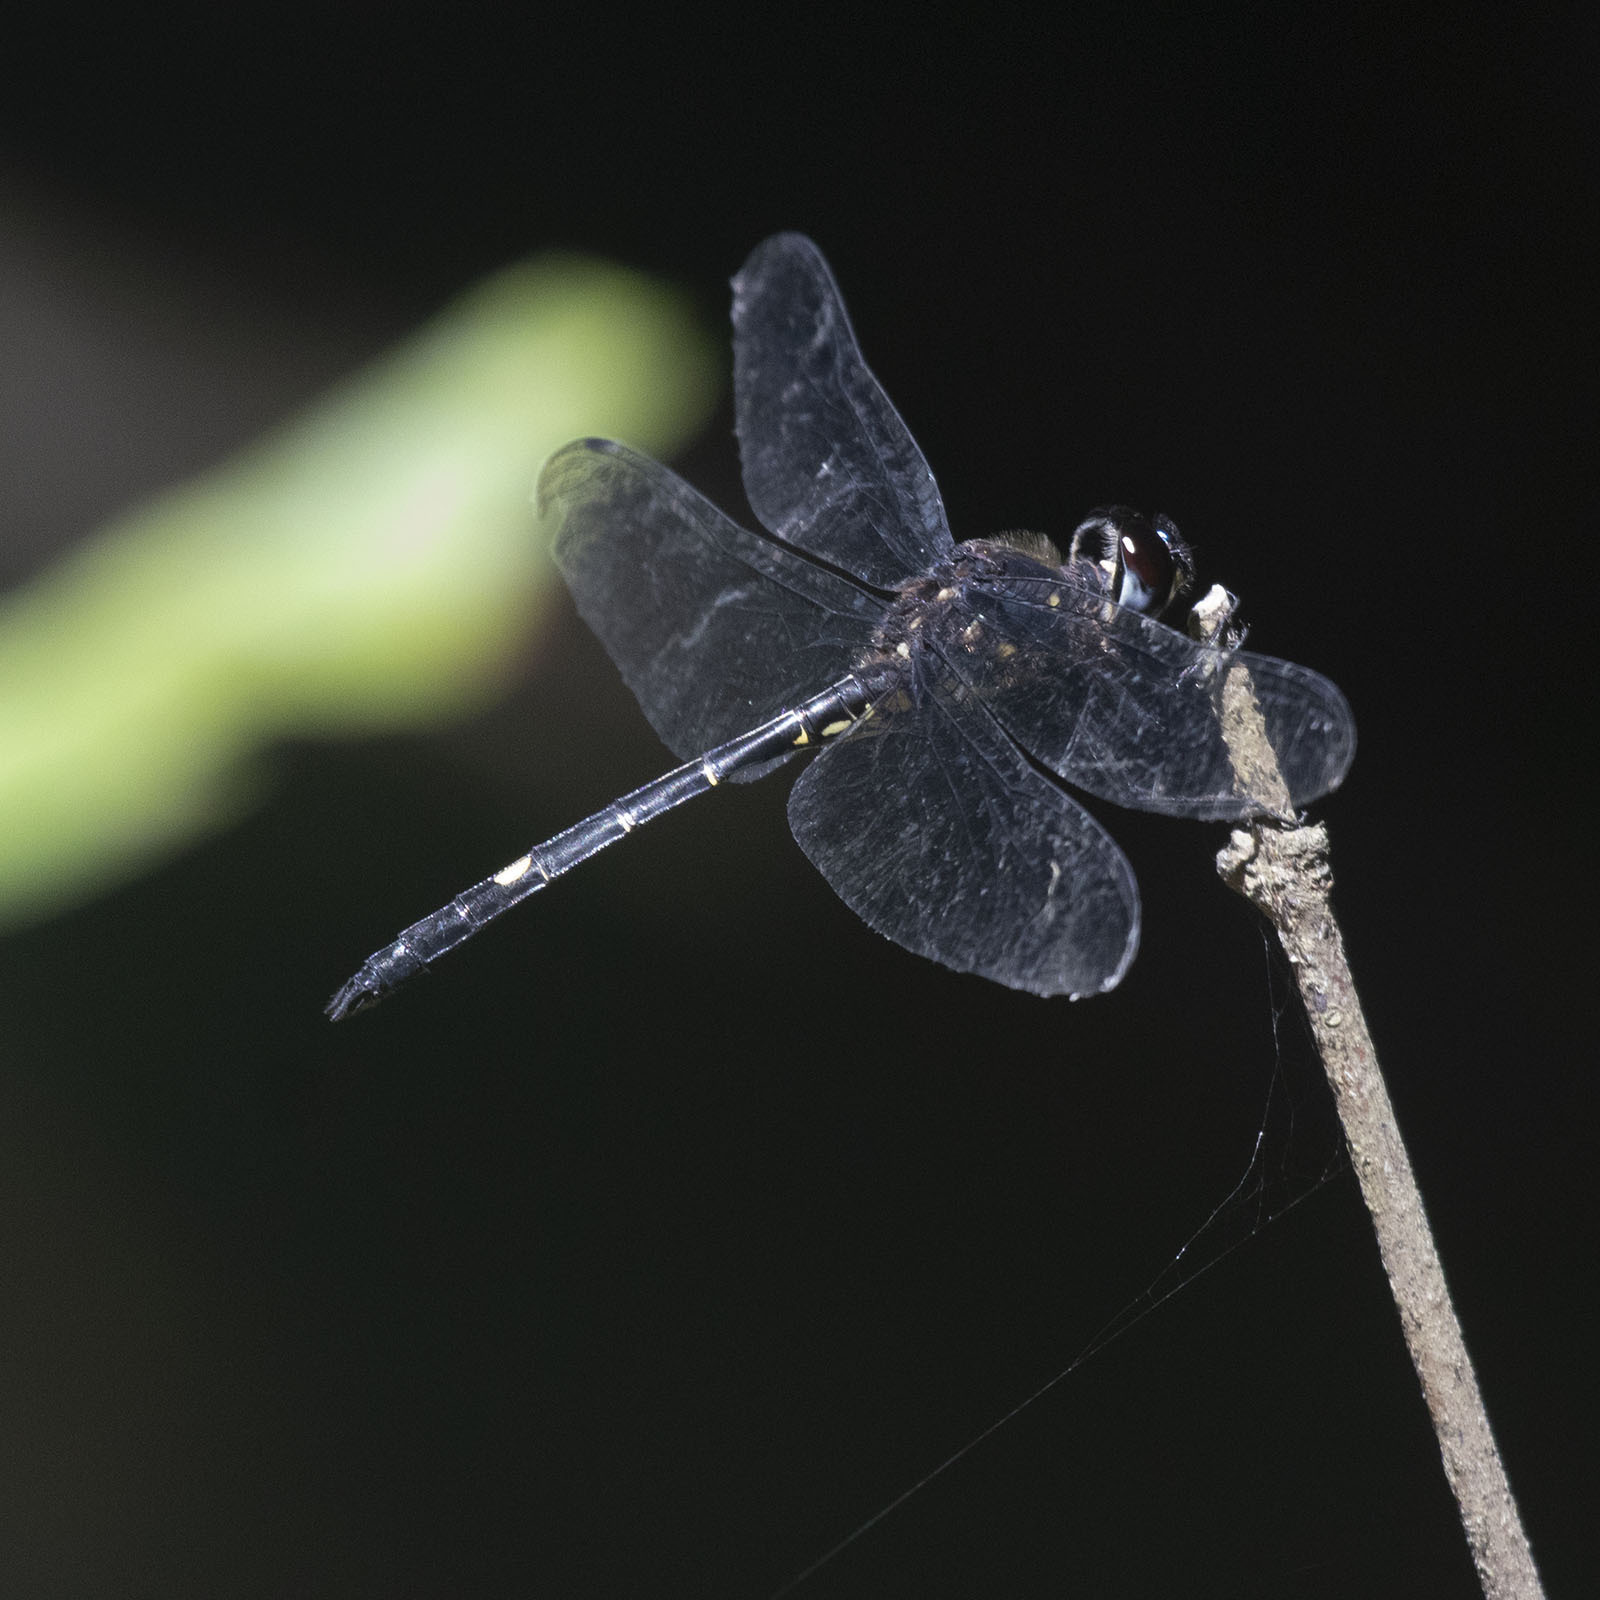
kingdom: Animalia
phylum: Arthropoda
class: Insecta
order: Odonata
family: Libellulidae
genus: Zygonyx
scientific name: Zygonyx iris
